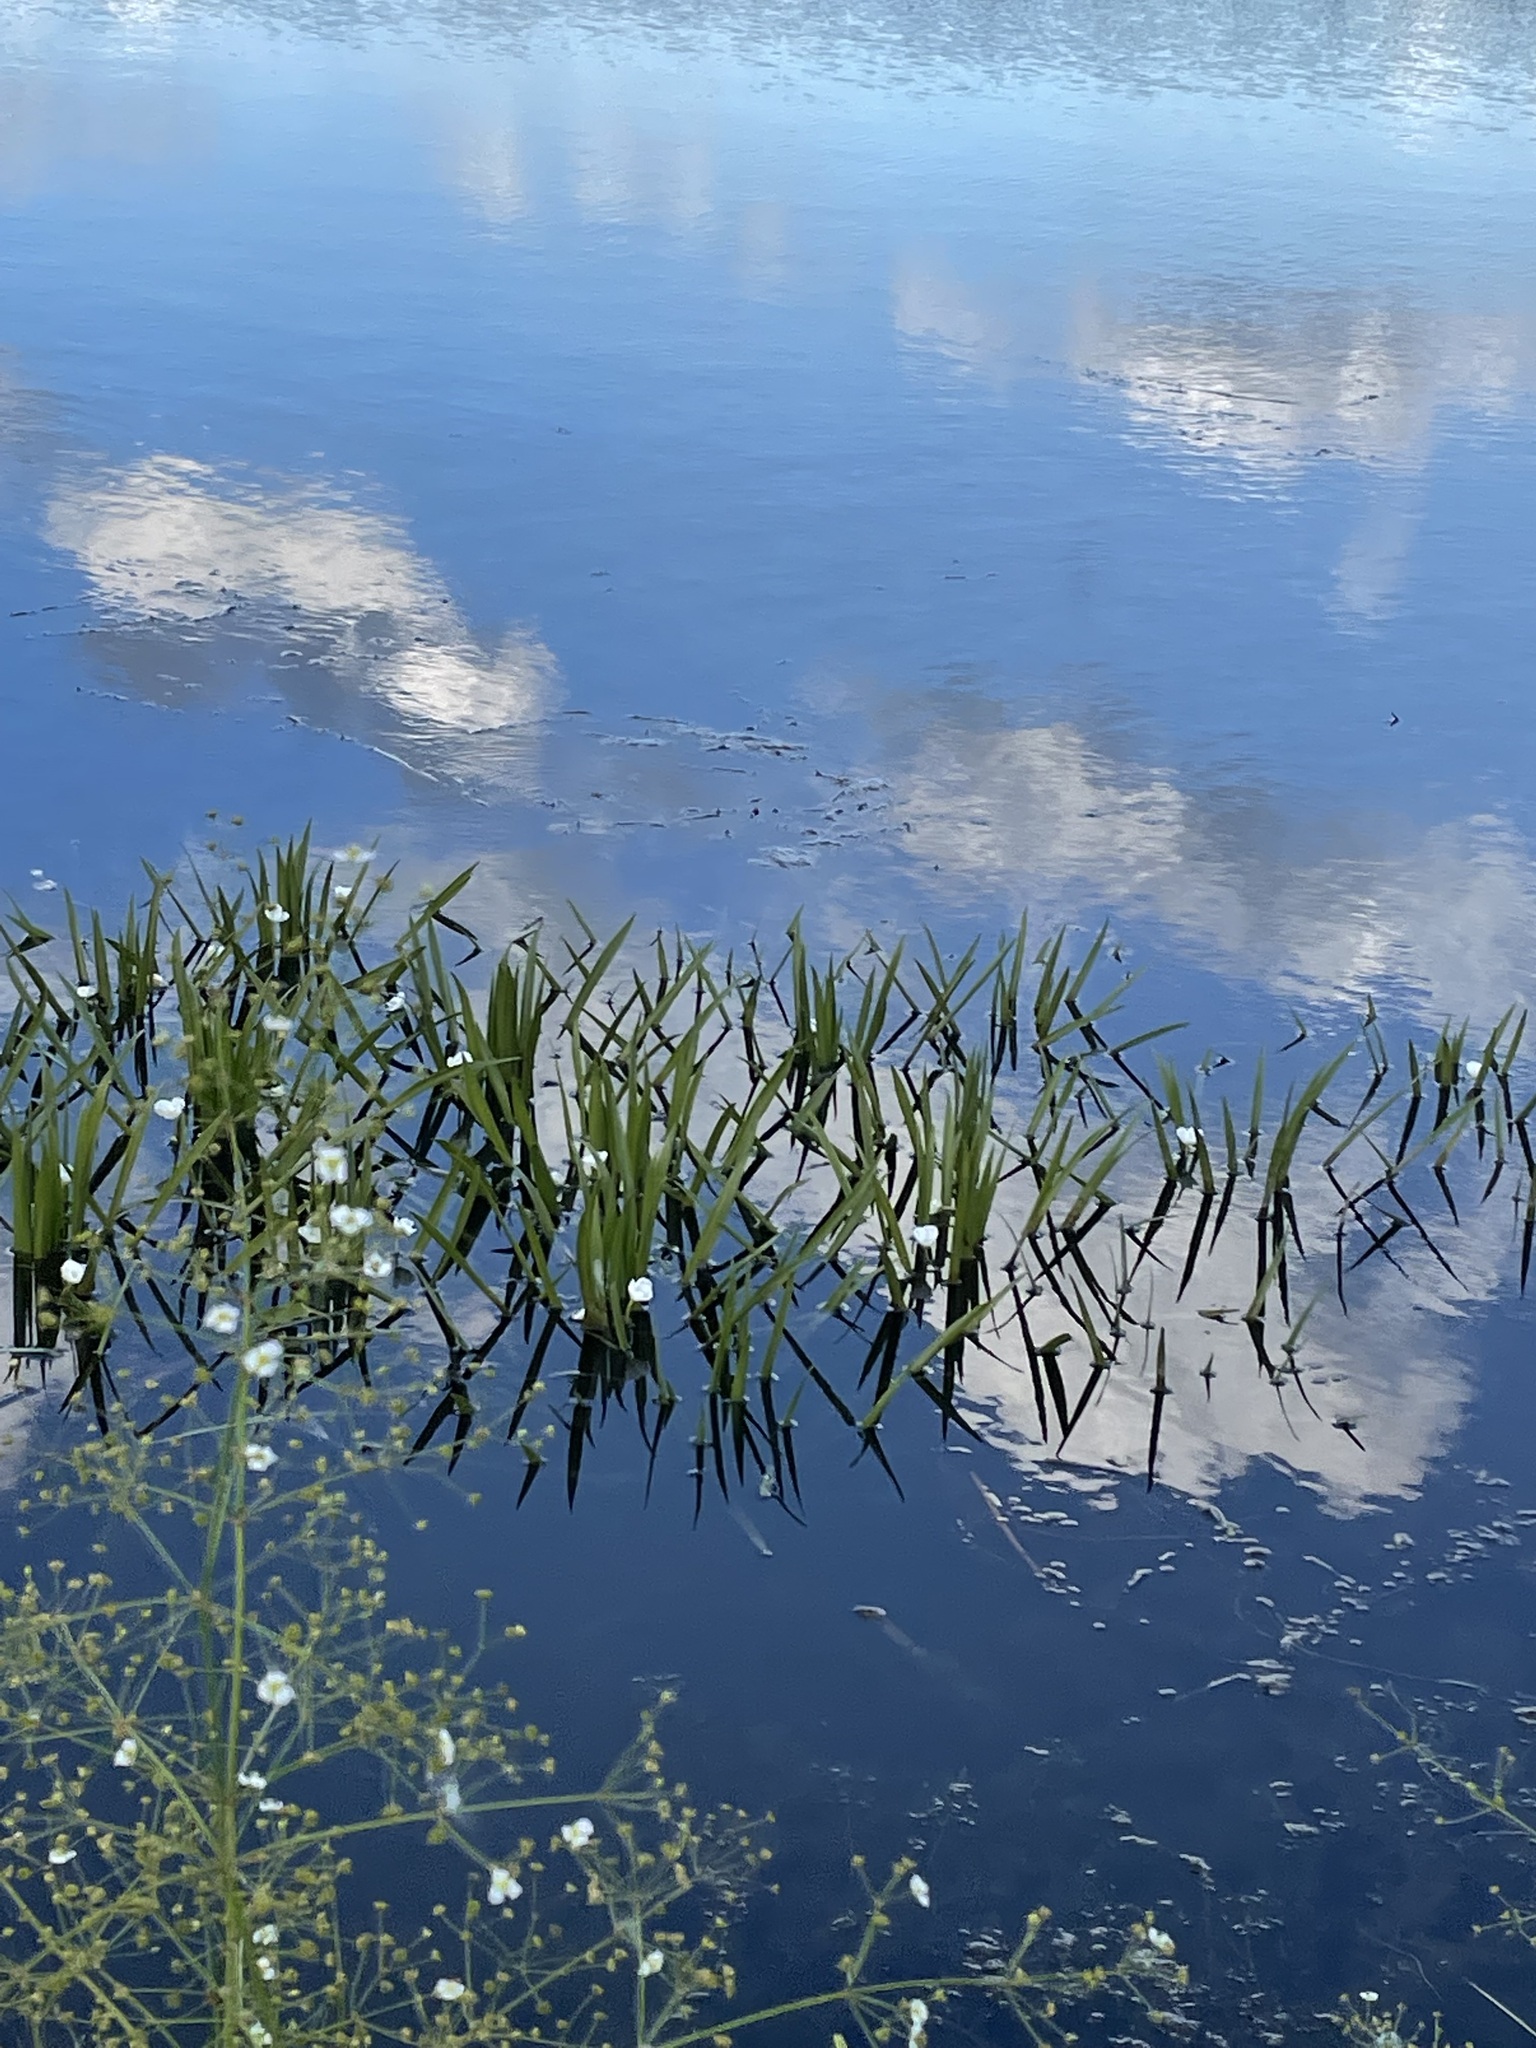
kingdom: Plantae
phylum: Tracheophyta
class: Liliopsida
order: Alismatales
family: Hydrocharitaceae
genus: Stratiotes
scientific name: Stratiotes aloides
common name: Water-soldier
